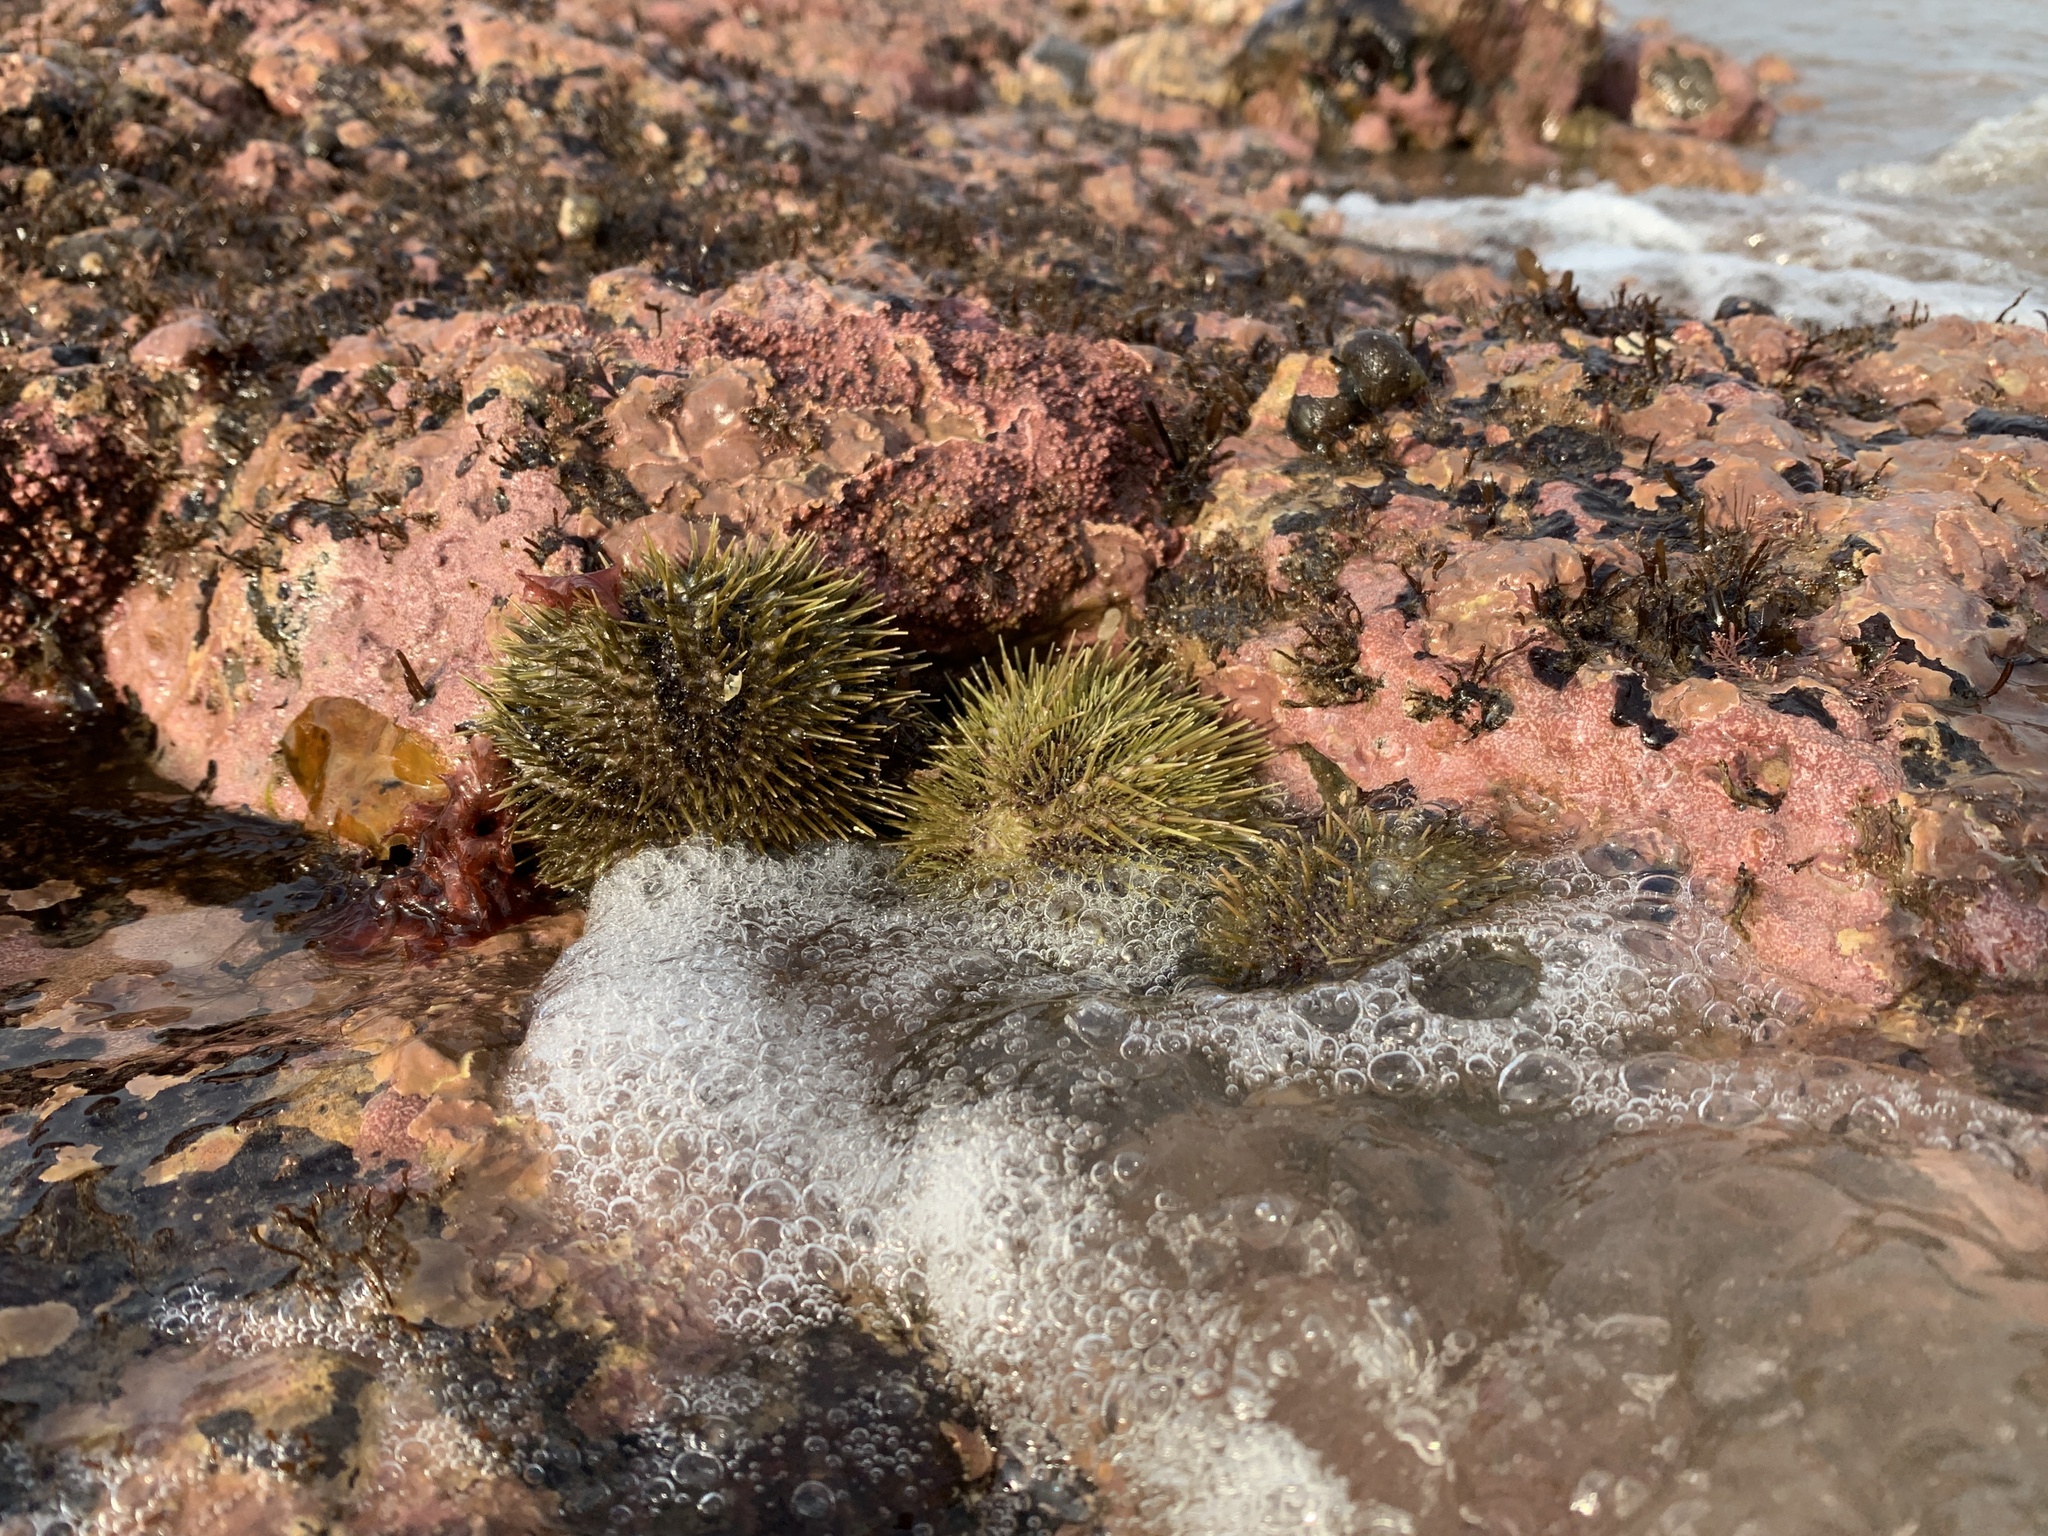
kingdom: Animalia
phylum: Echinodermata
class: Echinoidea
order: Camarodonta
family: Strongylocentrotidae
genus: Strongylocentrotus
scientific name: Strongylocentrotus droebachiensis
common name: Northern sea urchin
